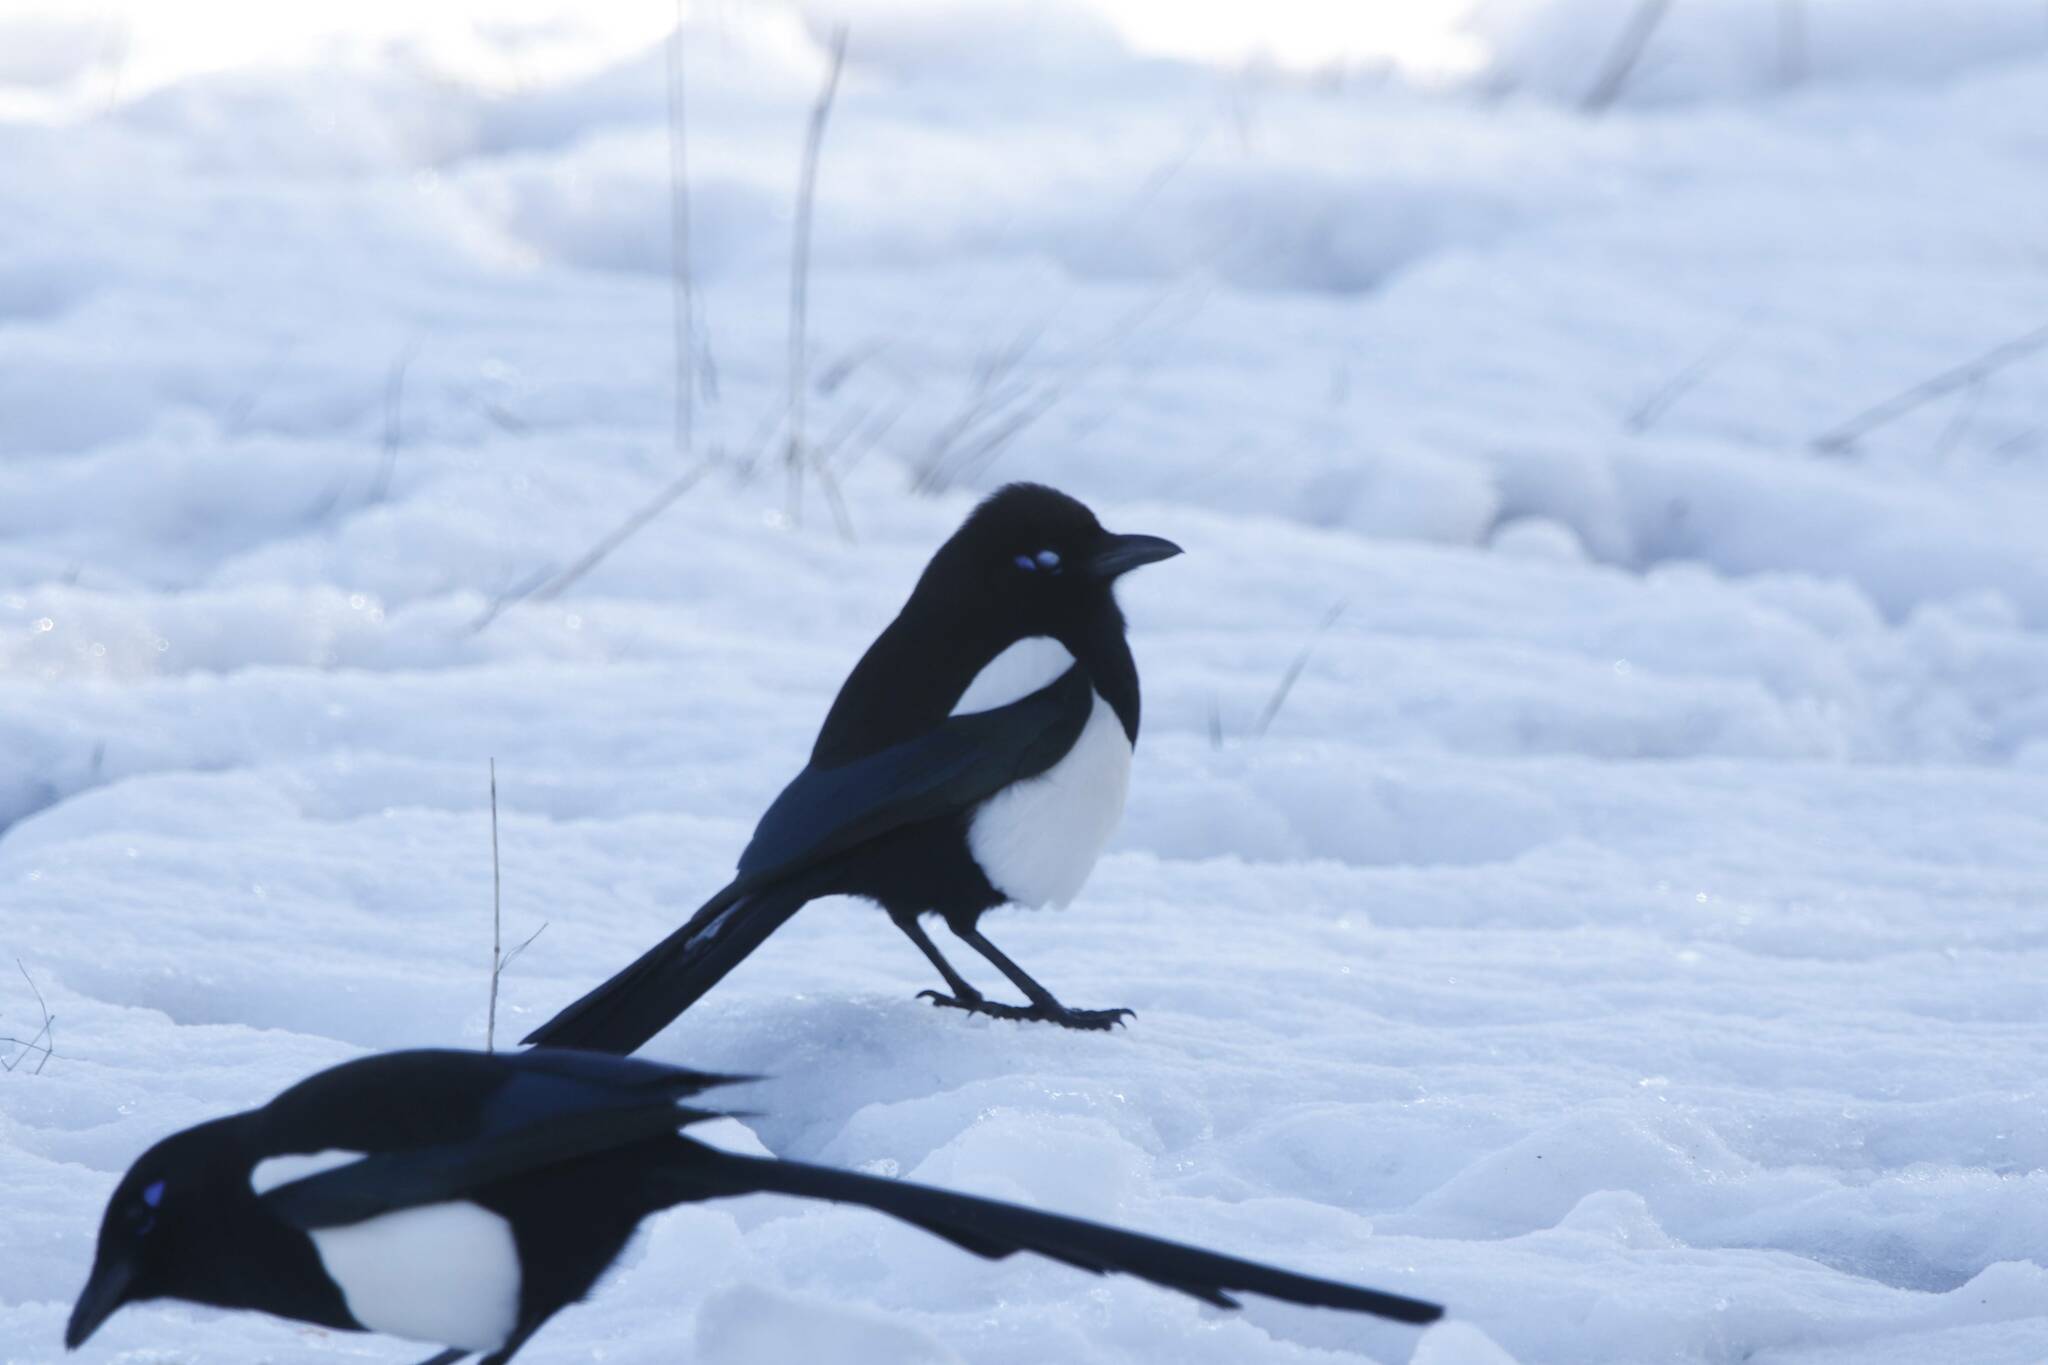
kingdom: Animalia
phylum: Chordata
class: Aves
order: Passeriformes
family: Corvidae
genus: Pica
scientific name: Pica mauritanica
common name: Maghreb magpie
